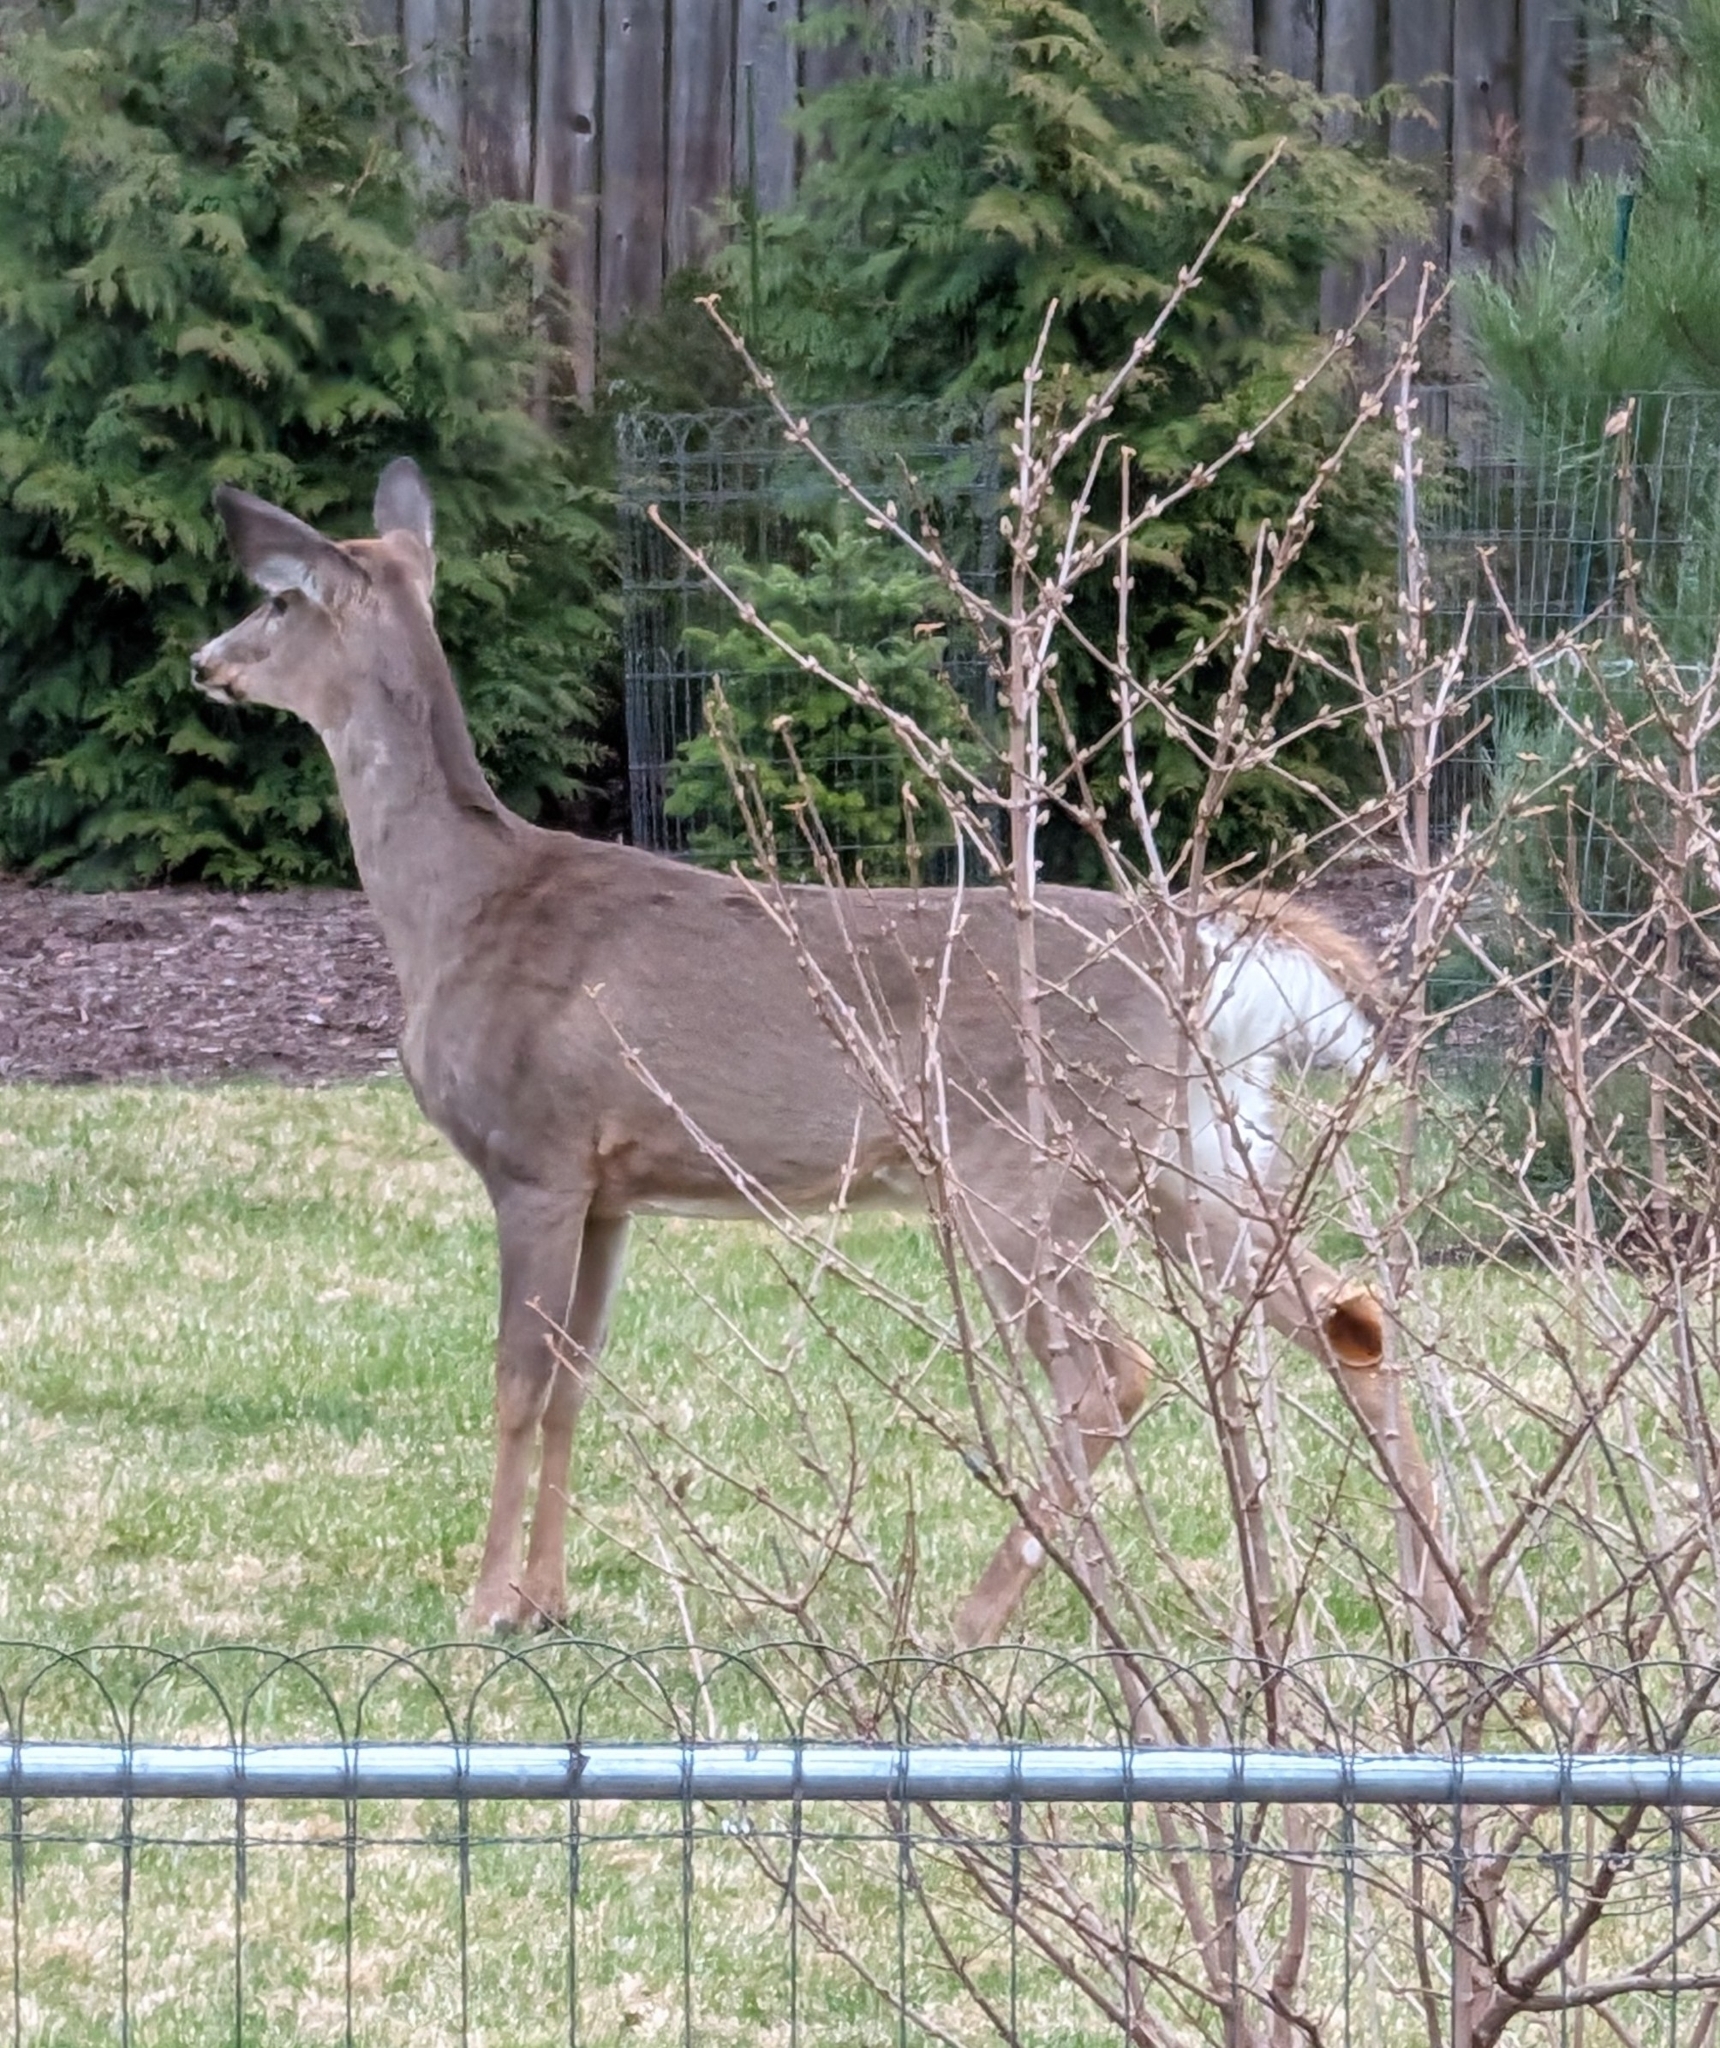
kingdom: Animalia
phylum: Chordata
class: Mammalia
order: Artiodactyla
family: Cervidae
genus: Odocoileus
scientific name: Odocoileus virginianus
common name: White-tailed deer
